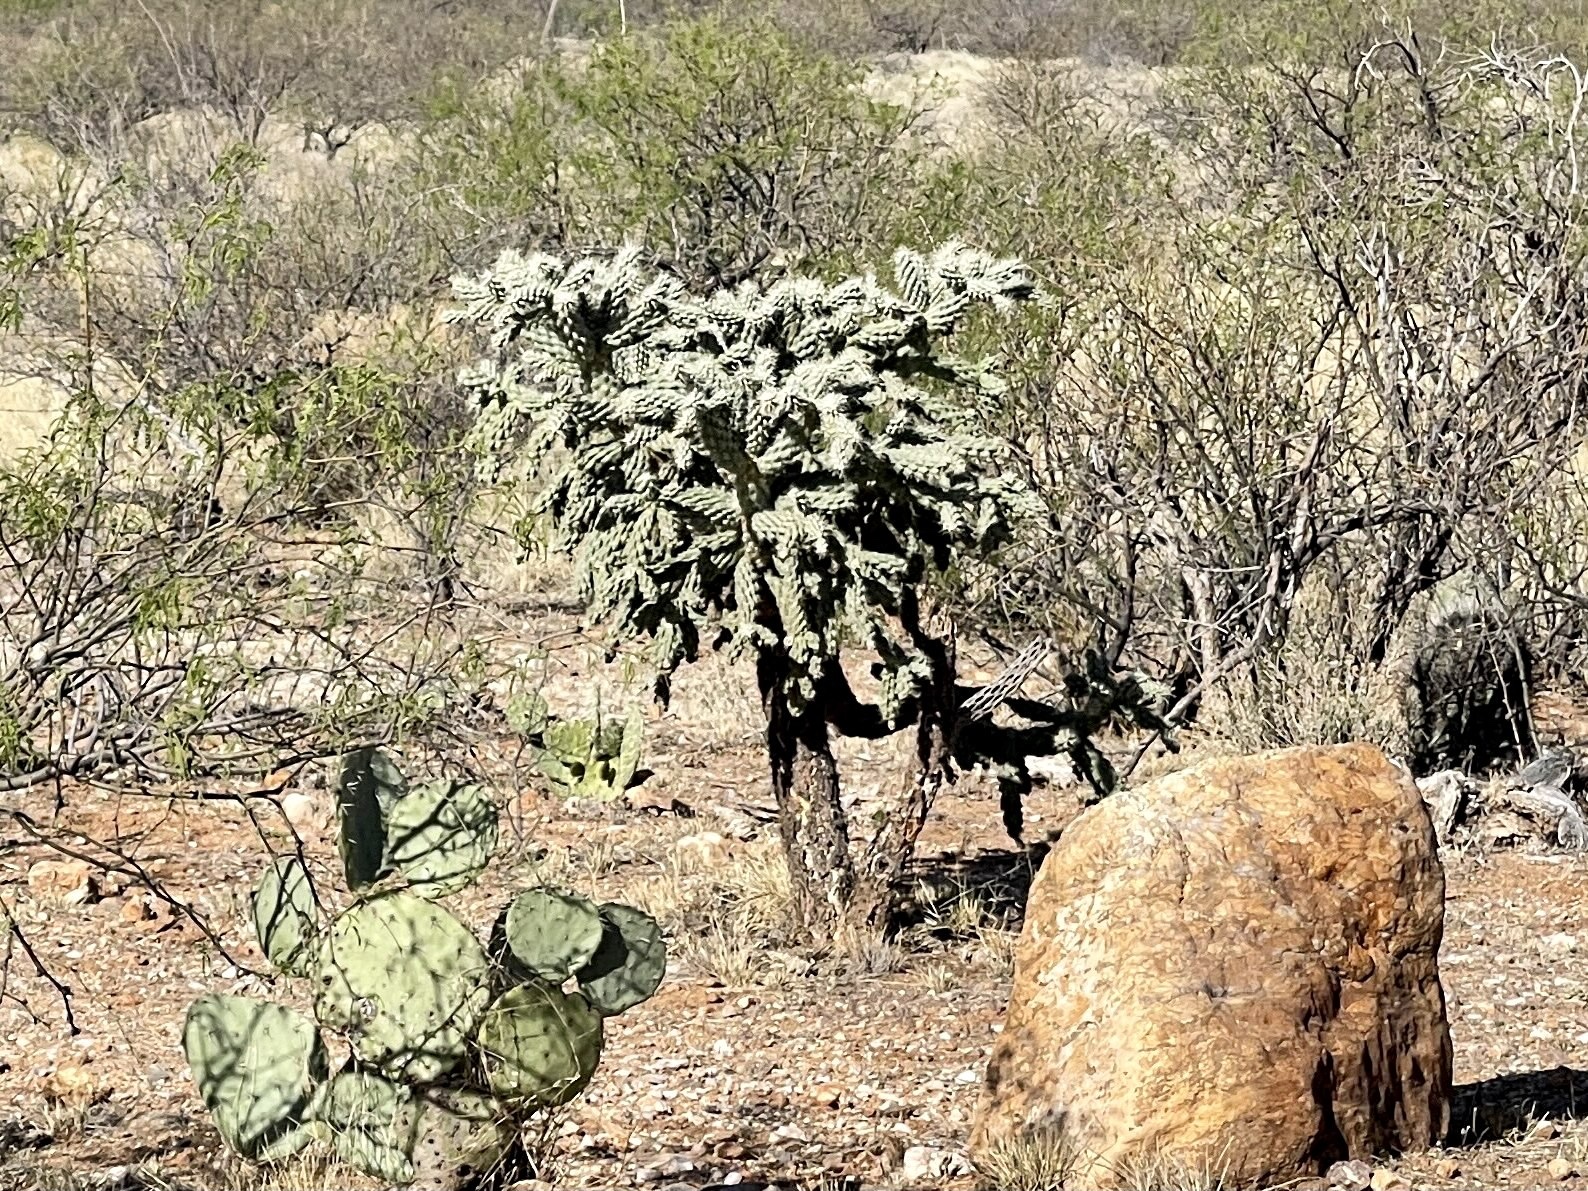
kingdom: Plantae
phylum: Tracheophyta
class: Magnoliopsida
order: Caryophyllales
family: Cactaceae
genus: Cylindropuntia
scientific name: Cylindropuntia fulgida
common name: Jumping cholla
